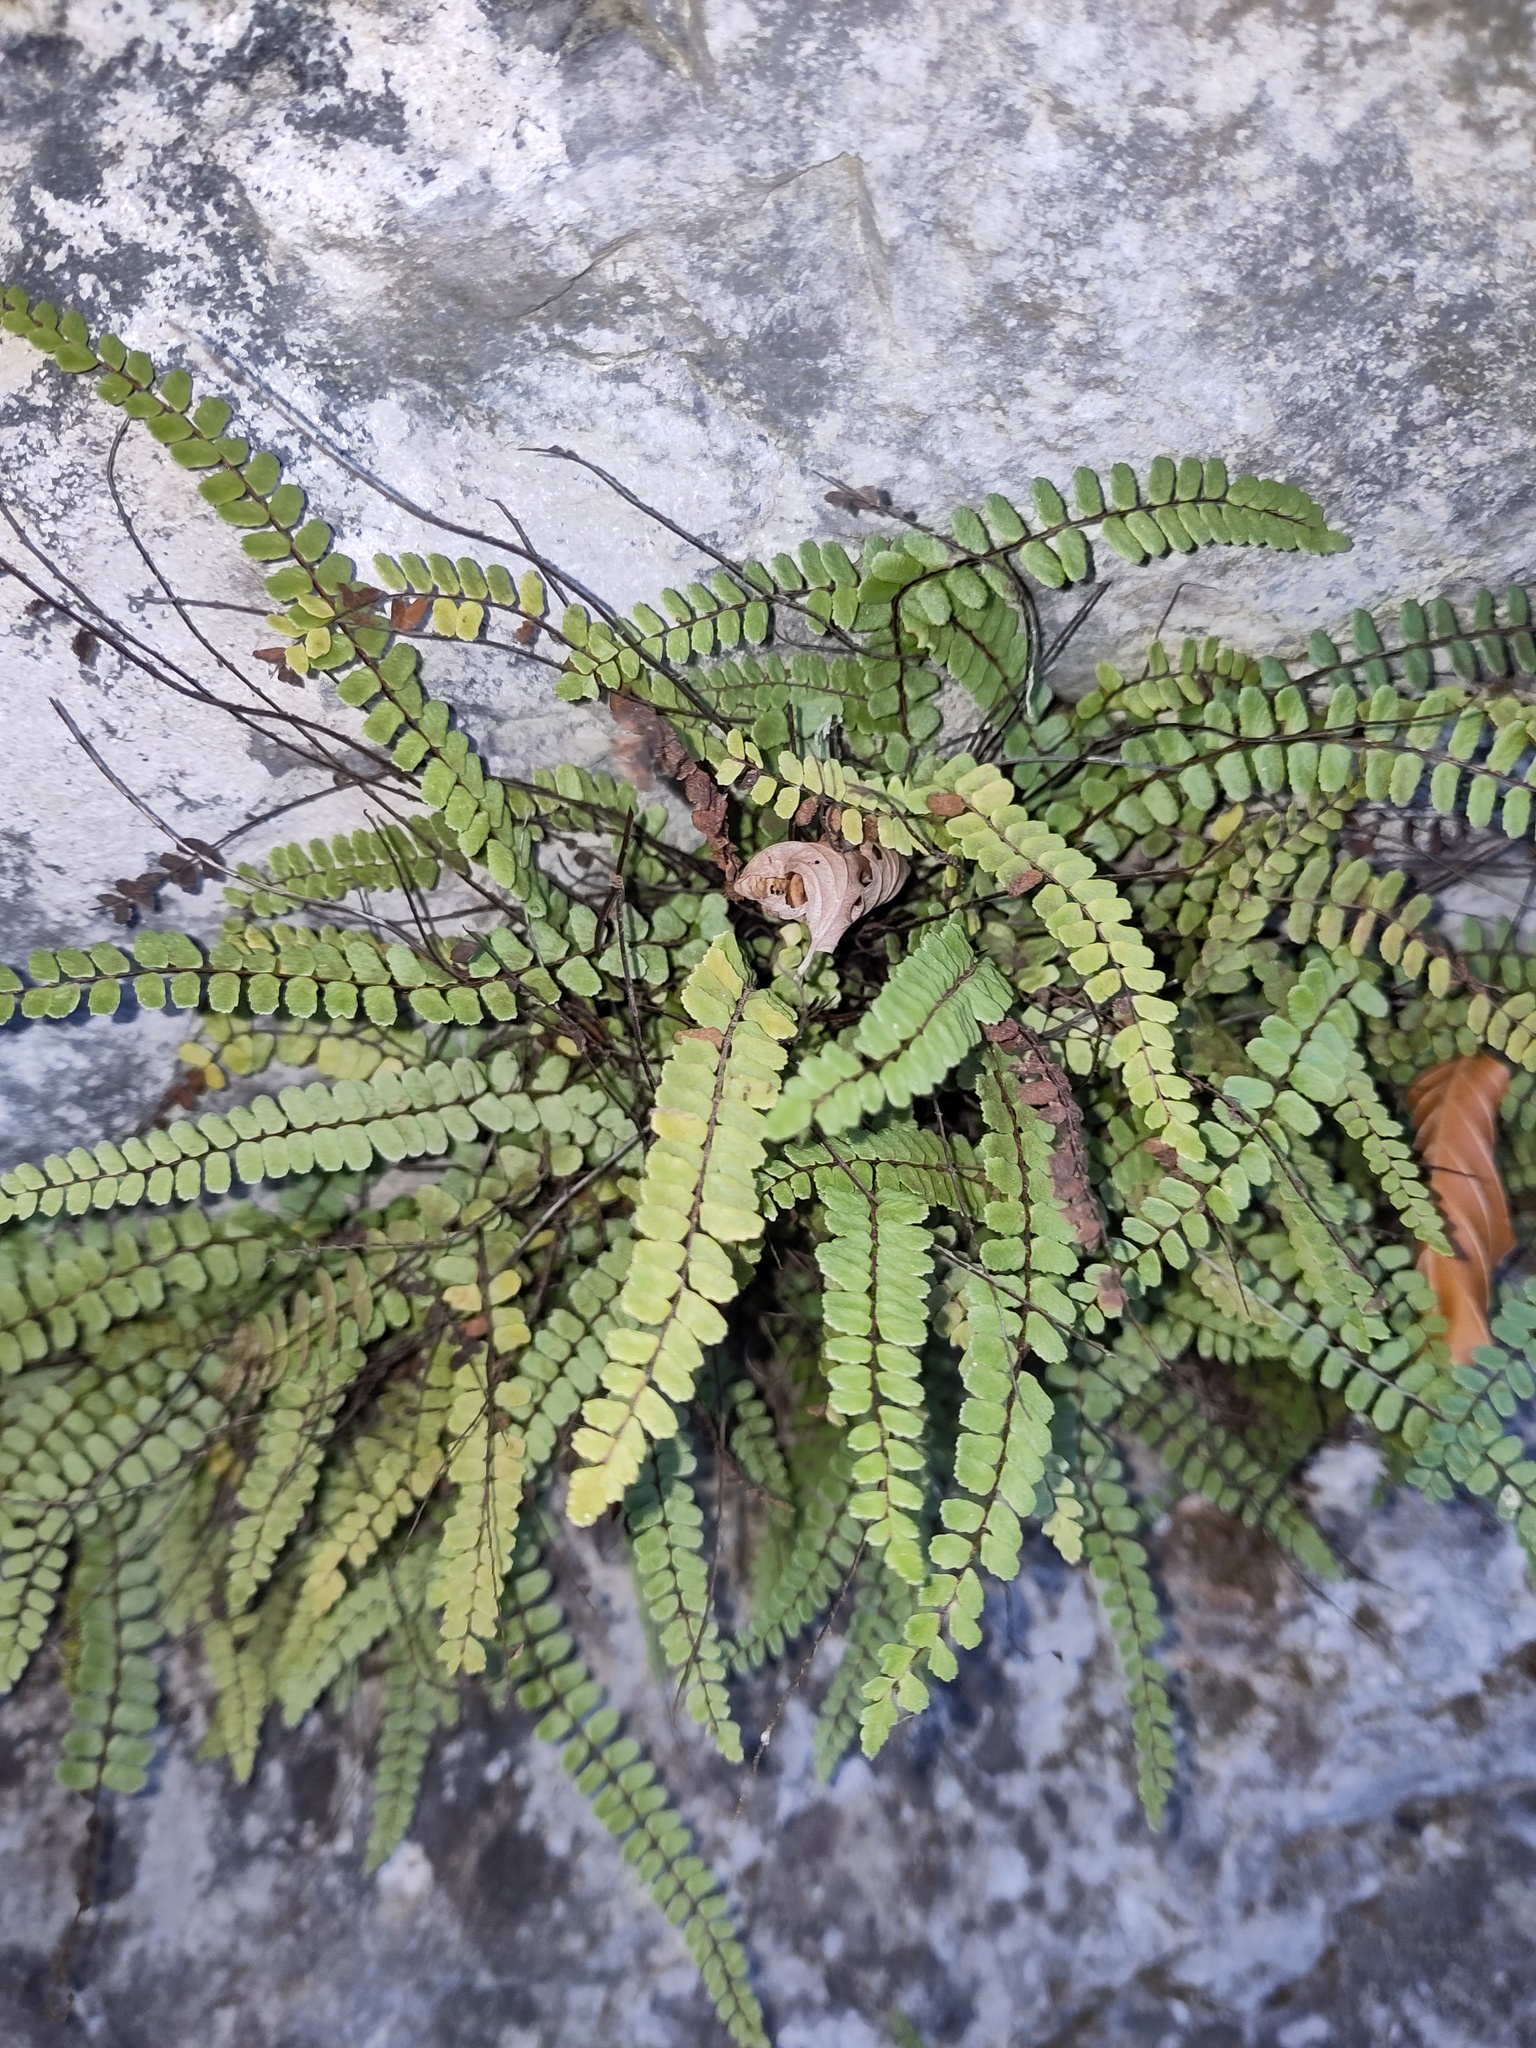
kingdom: Plantae
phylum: Tracheophyta
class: Polypodiopsida
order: Polypodiales
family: Aspleniaceae
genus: Asplenium
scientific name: Asplenium trichomanes
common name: Maidenhair spleenwort
